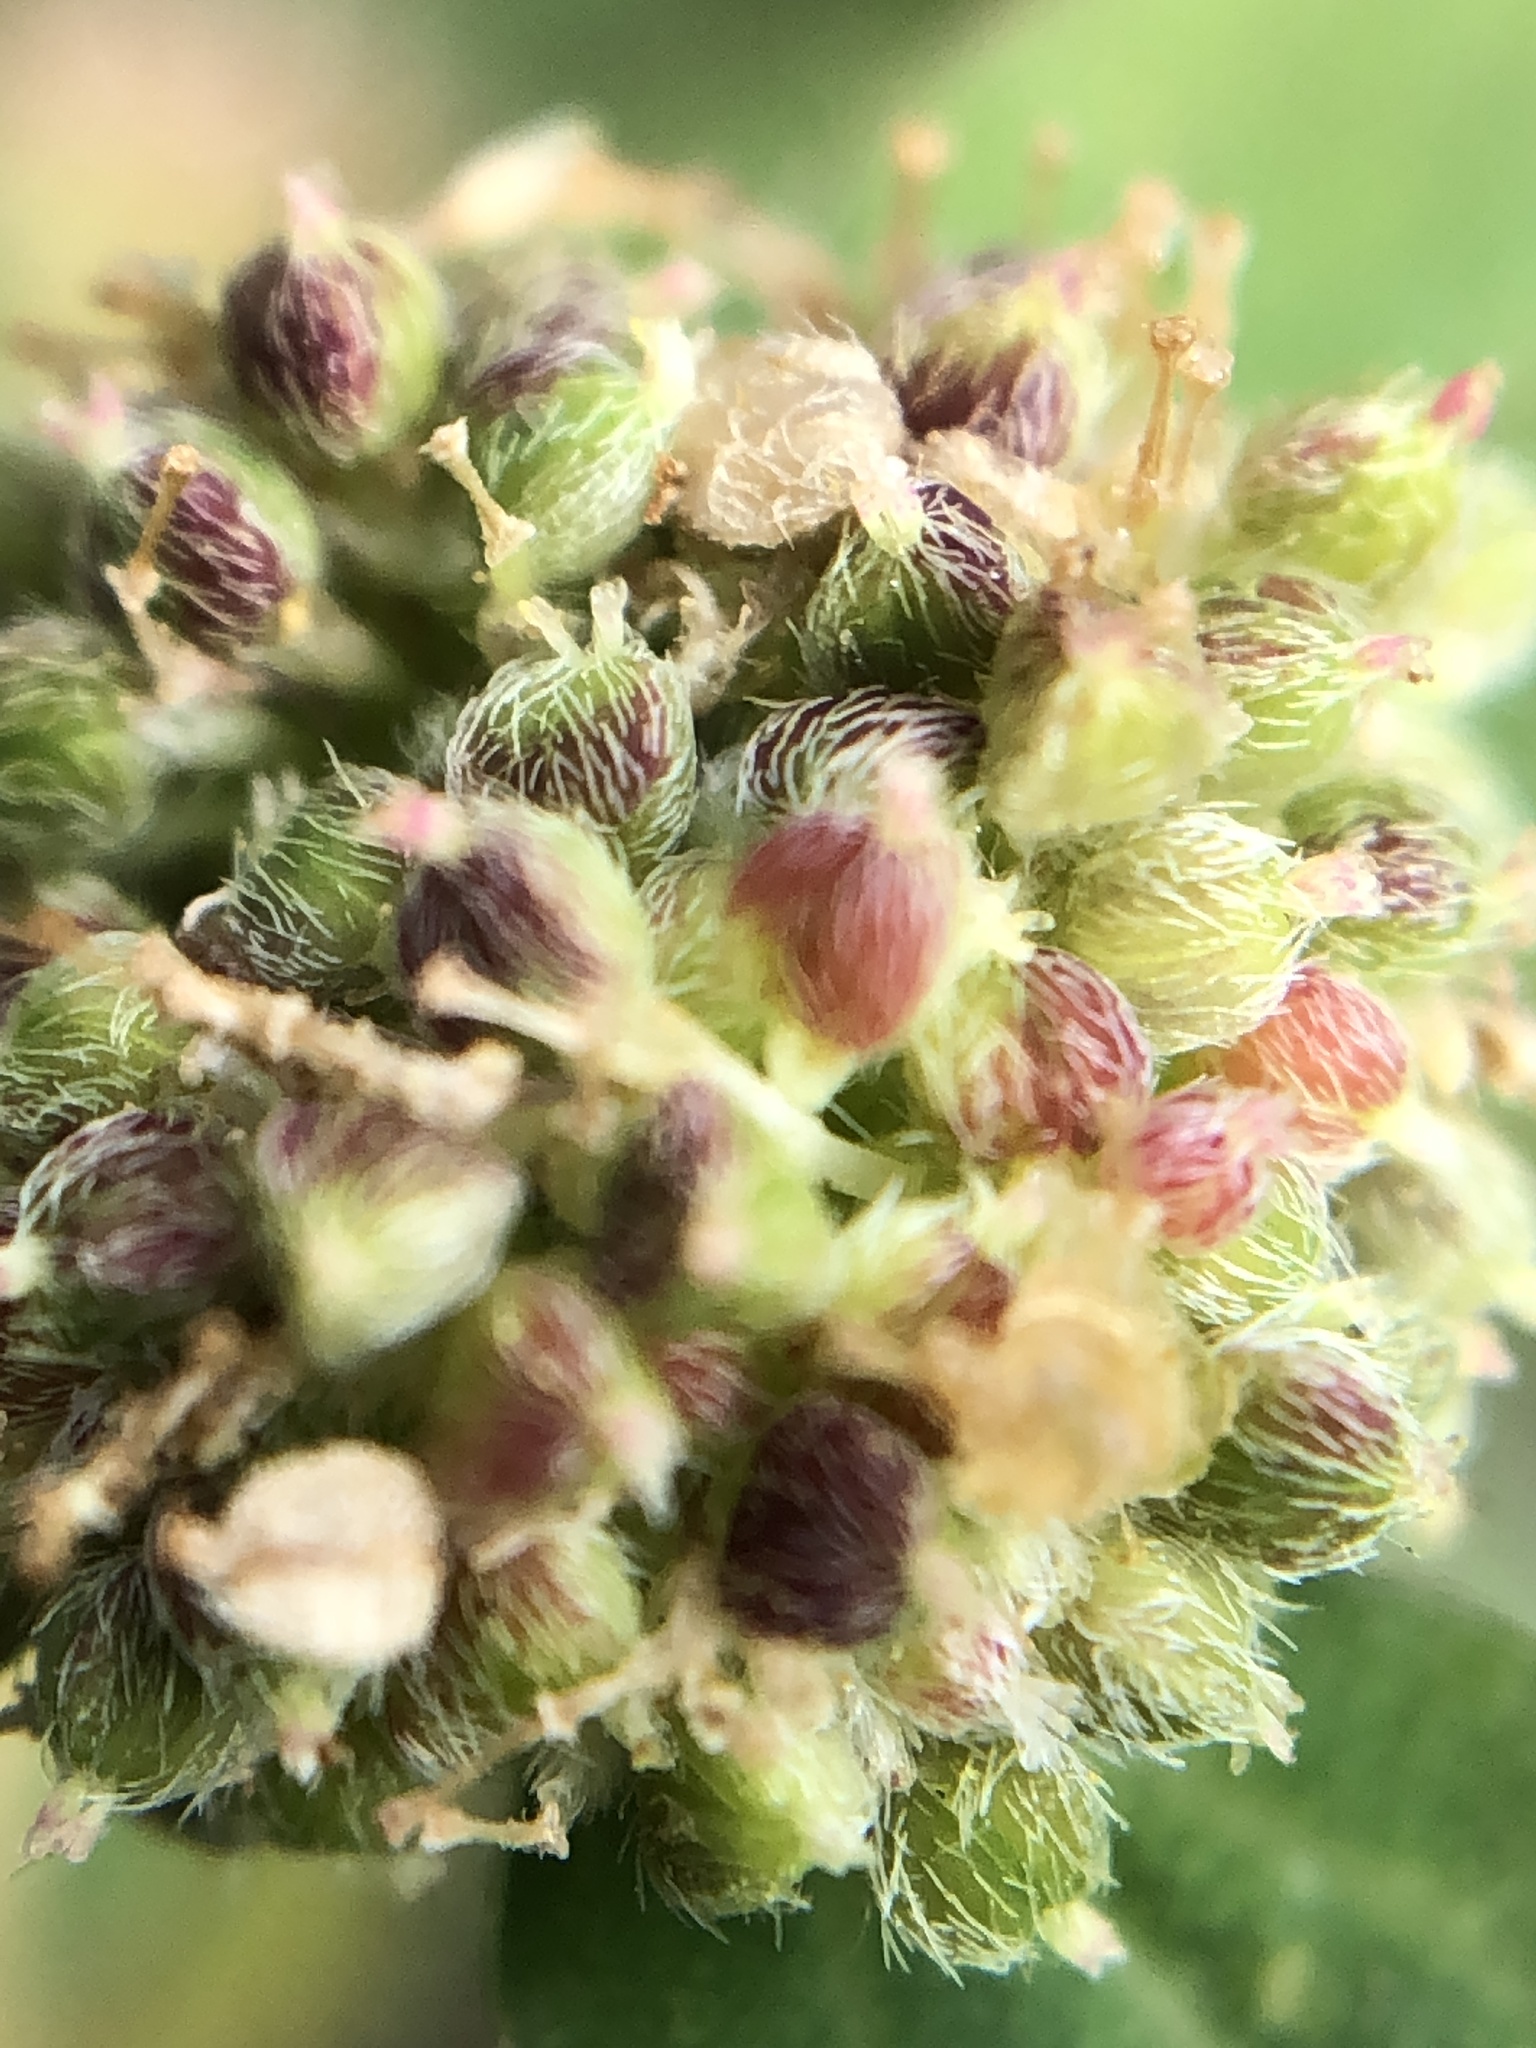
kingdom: Plantae
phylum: Tracheophyta
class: Magnoliopsida
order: Malpighiales
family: Euphorbiaceae
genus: Euphorbia
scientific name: Euphorbia ophthalmica
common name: Florida hammock sandmat
